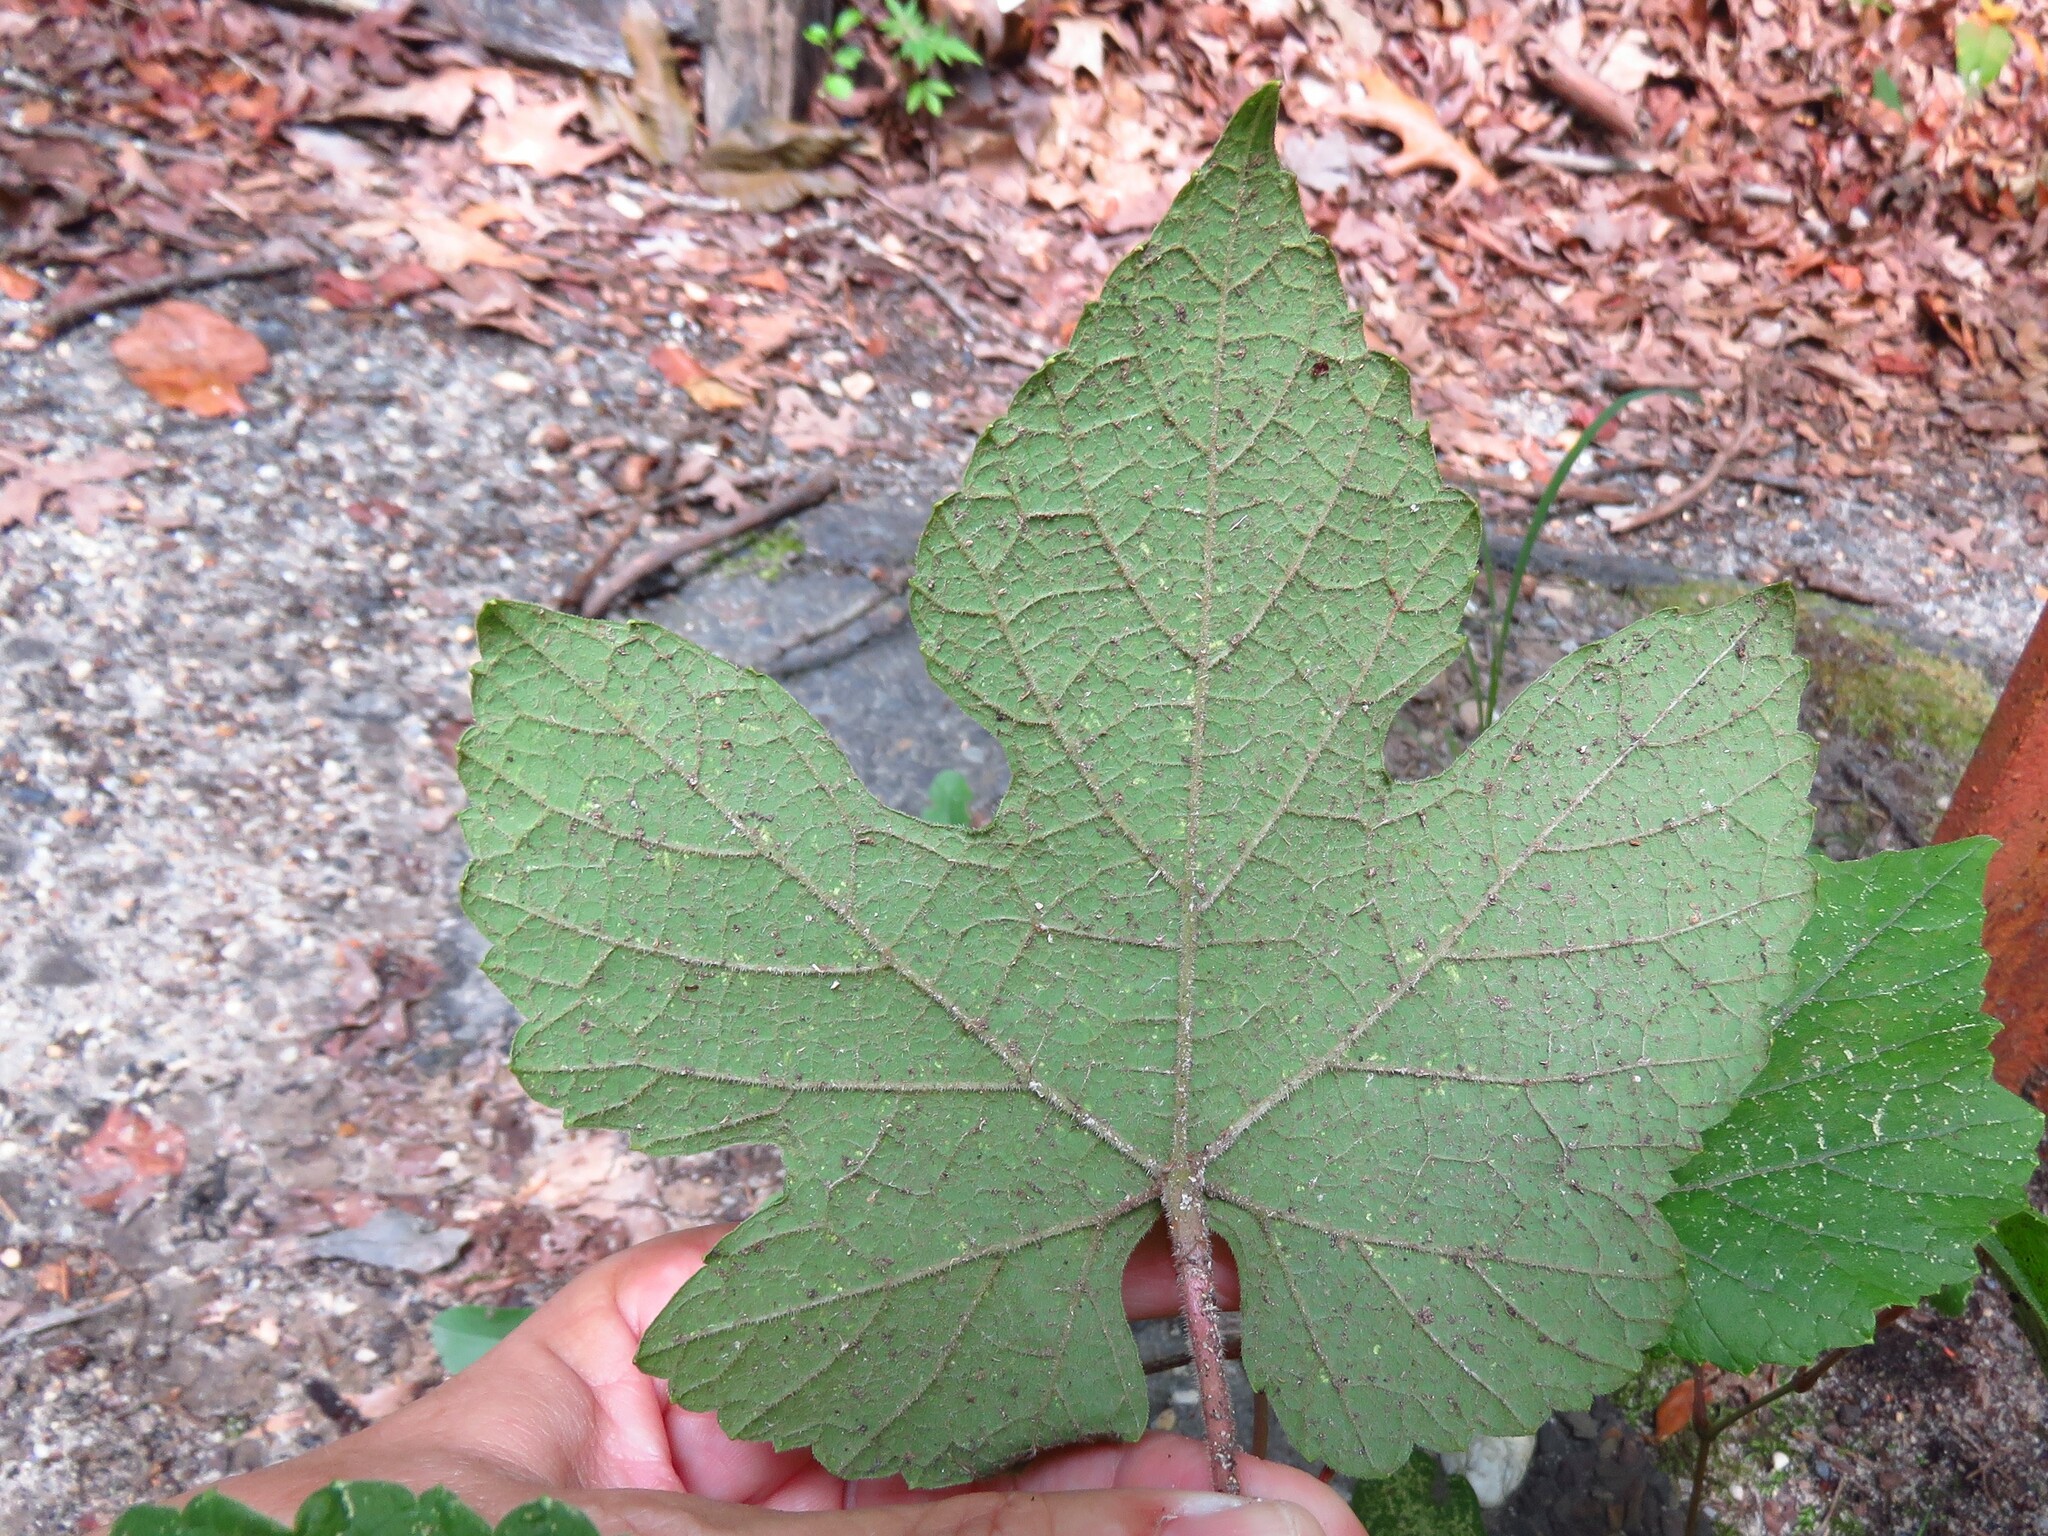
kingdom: Plantae
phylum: Tracheophyta
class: Magnoliopsida
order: Vitales
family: Vitaceae
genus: Vitis
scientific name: Vitis aestivalis
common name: Pigeon grape
